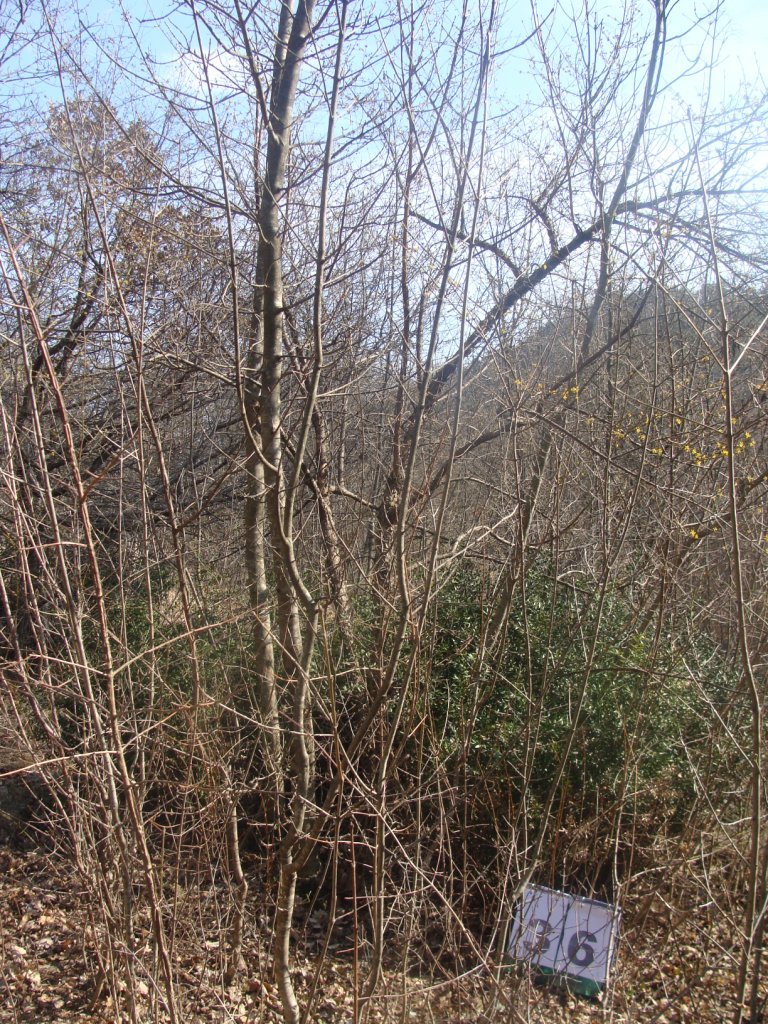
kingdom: Plantae
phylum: Tracheophyta
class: Magnoliopsida
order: Cornales
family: Cornaceae
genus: Cornus
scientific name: Cornus mas
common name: Cornelian-cherry
